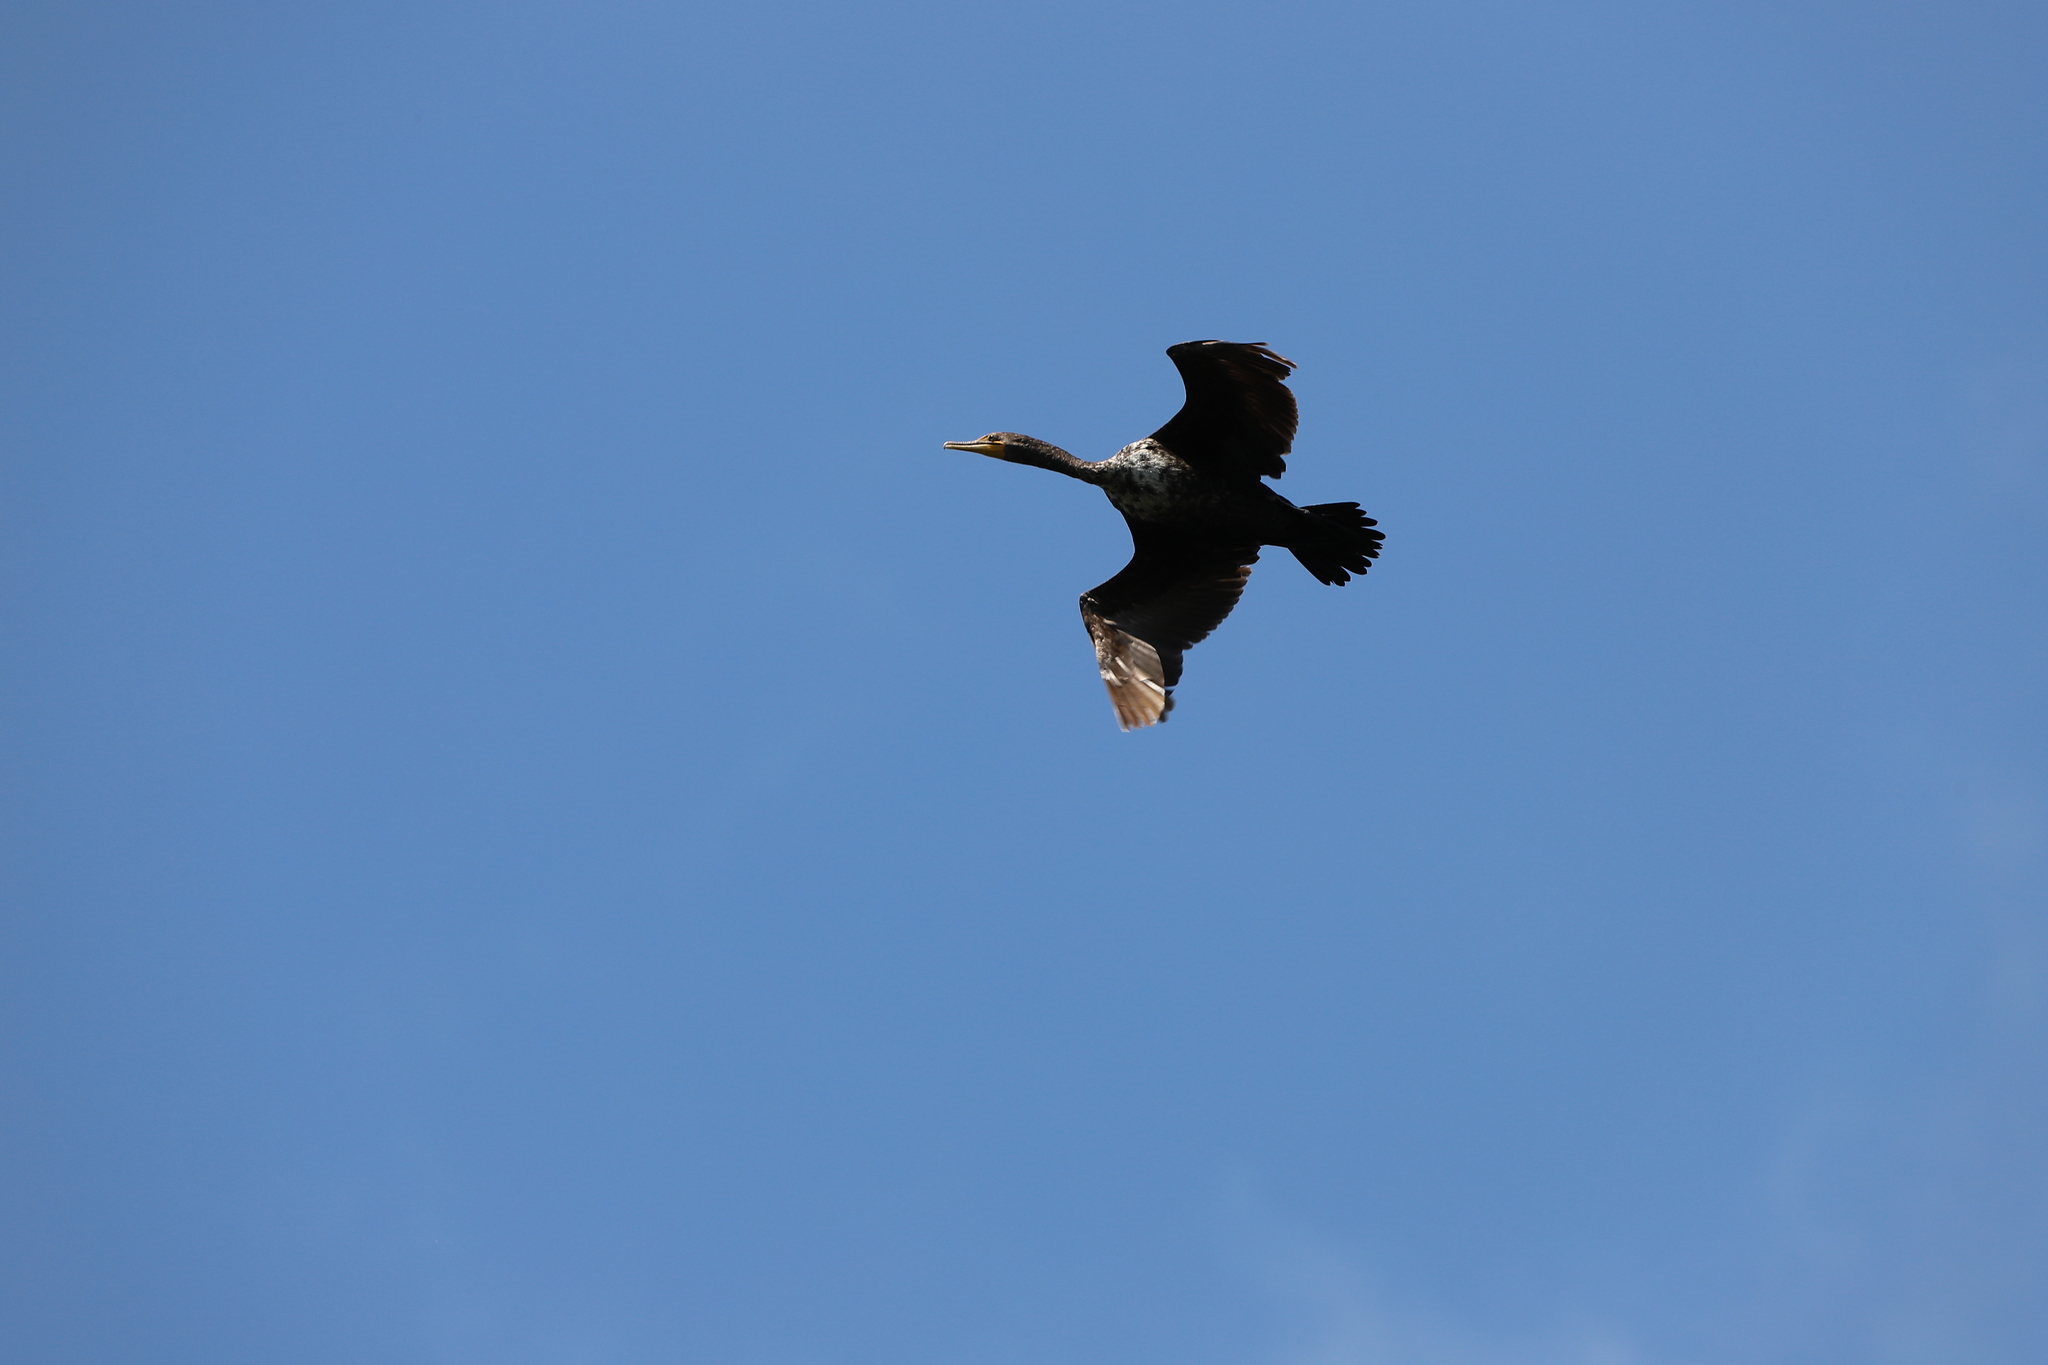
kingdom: Animalia
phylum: Chordata
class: Aves
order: Suliformes
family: Phalacrocoracidae
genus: Phalacrocorax
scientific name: Phalacrocorax auritus
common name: Double-crested cormorant
